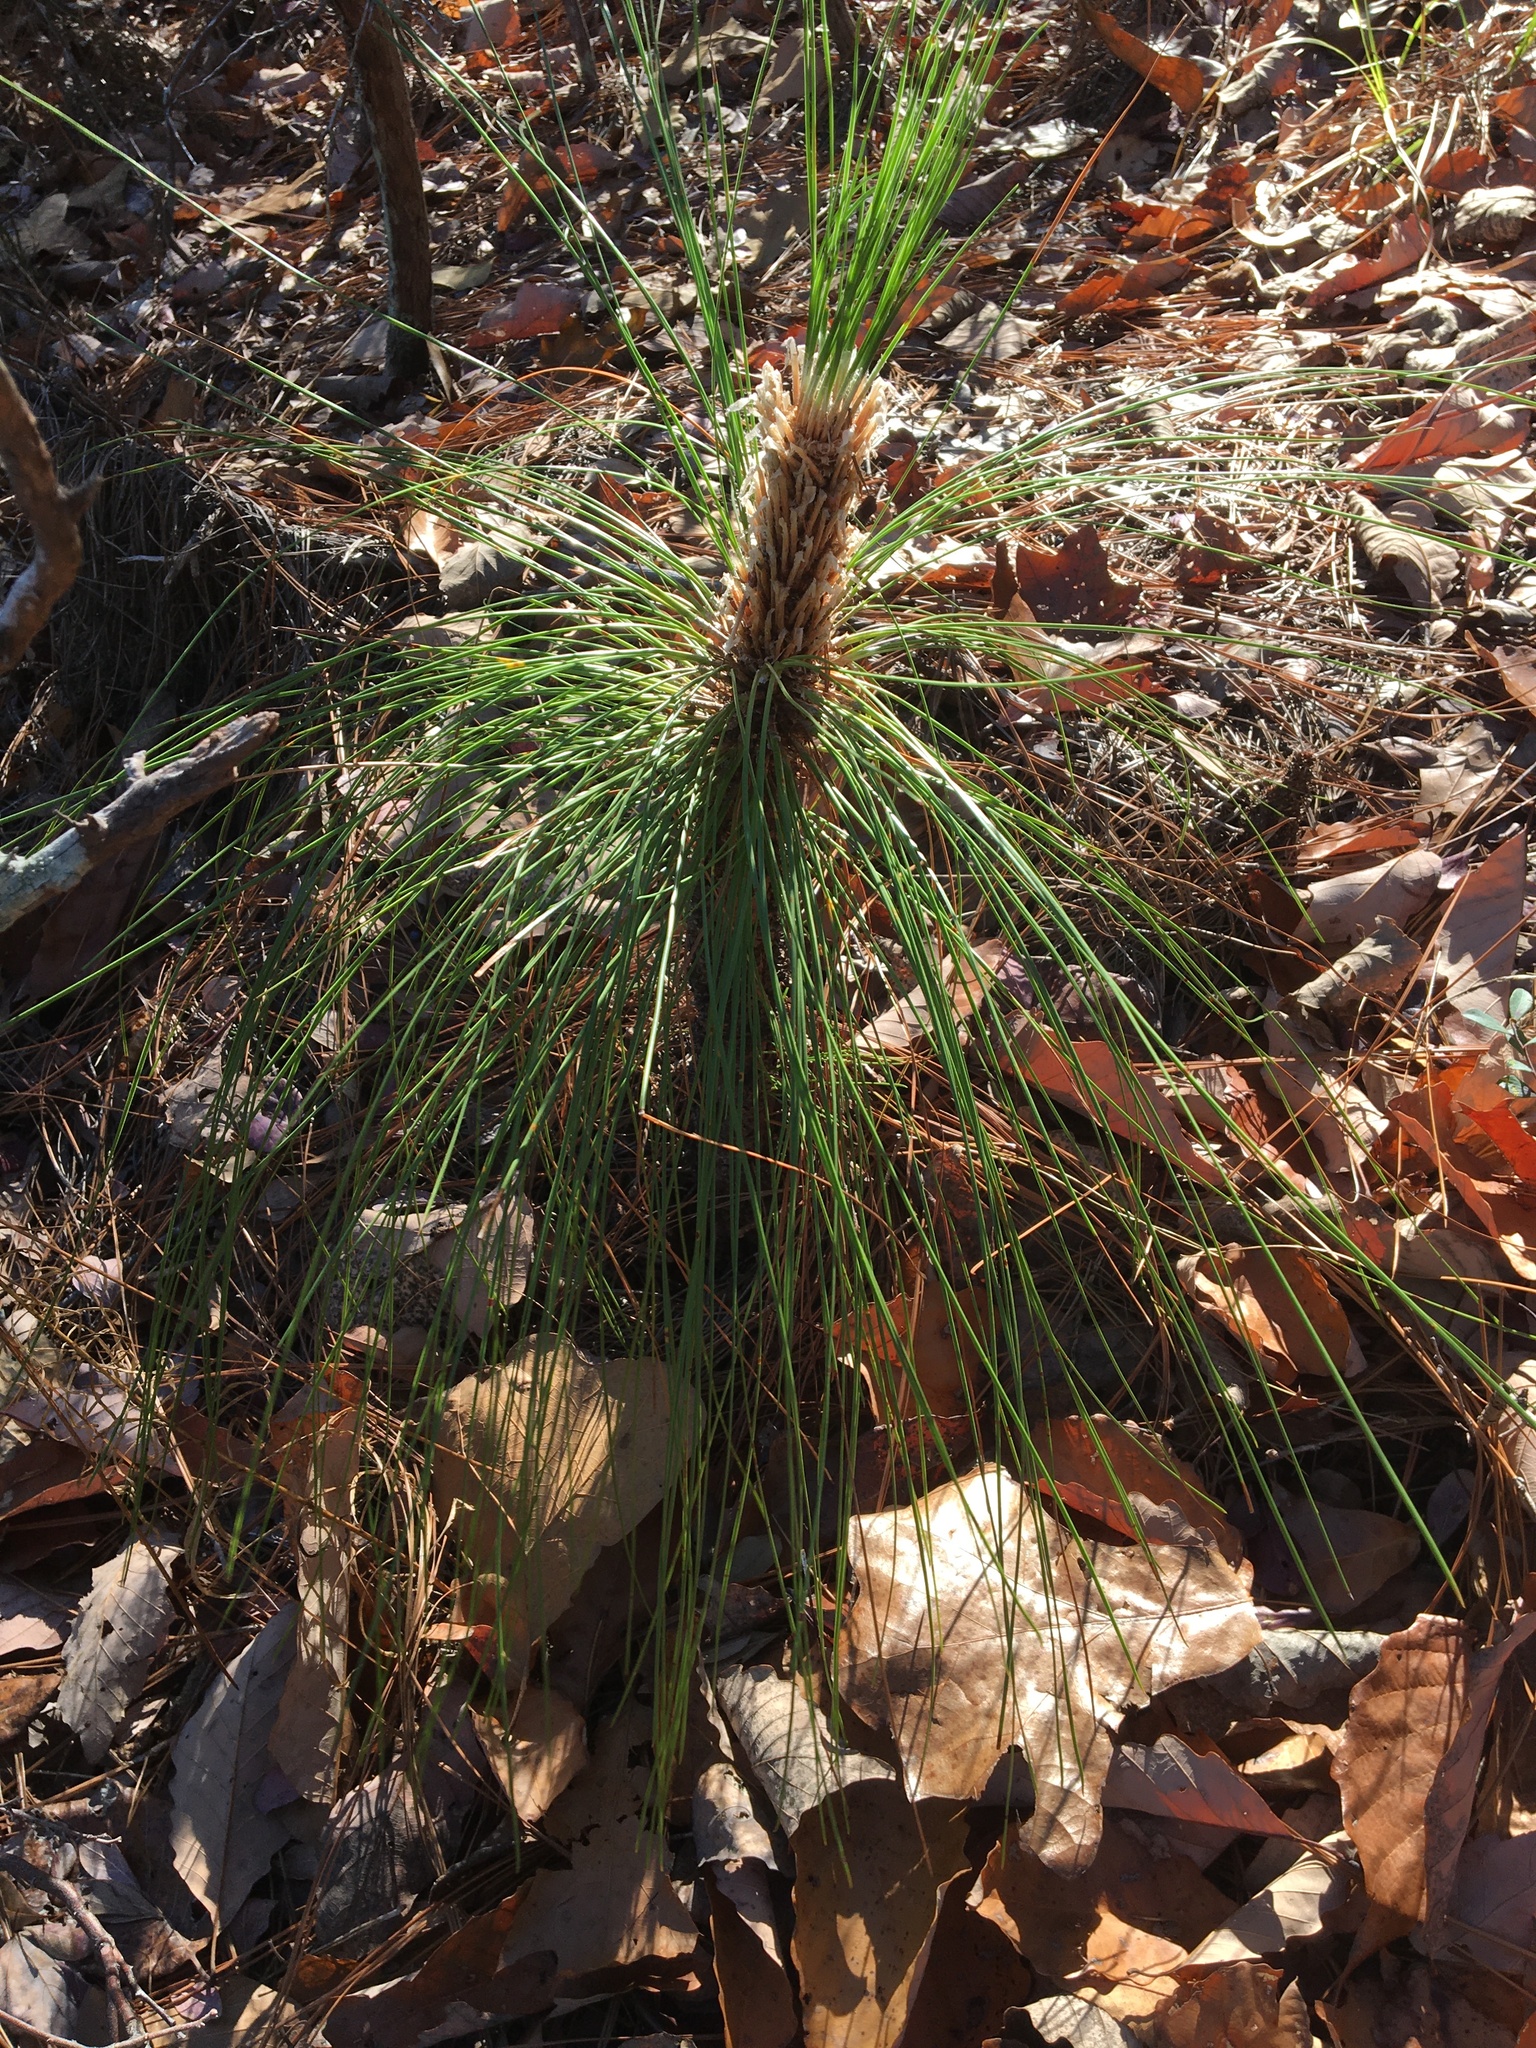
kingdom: Plantae
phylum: Tracheophyta
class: Pinopsida
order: Pinales
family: Pinaceae
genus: Pinus
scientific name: Pinus palustris
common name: Longleaf pine
